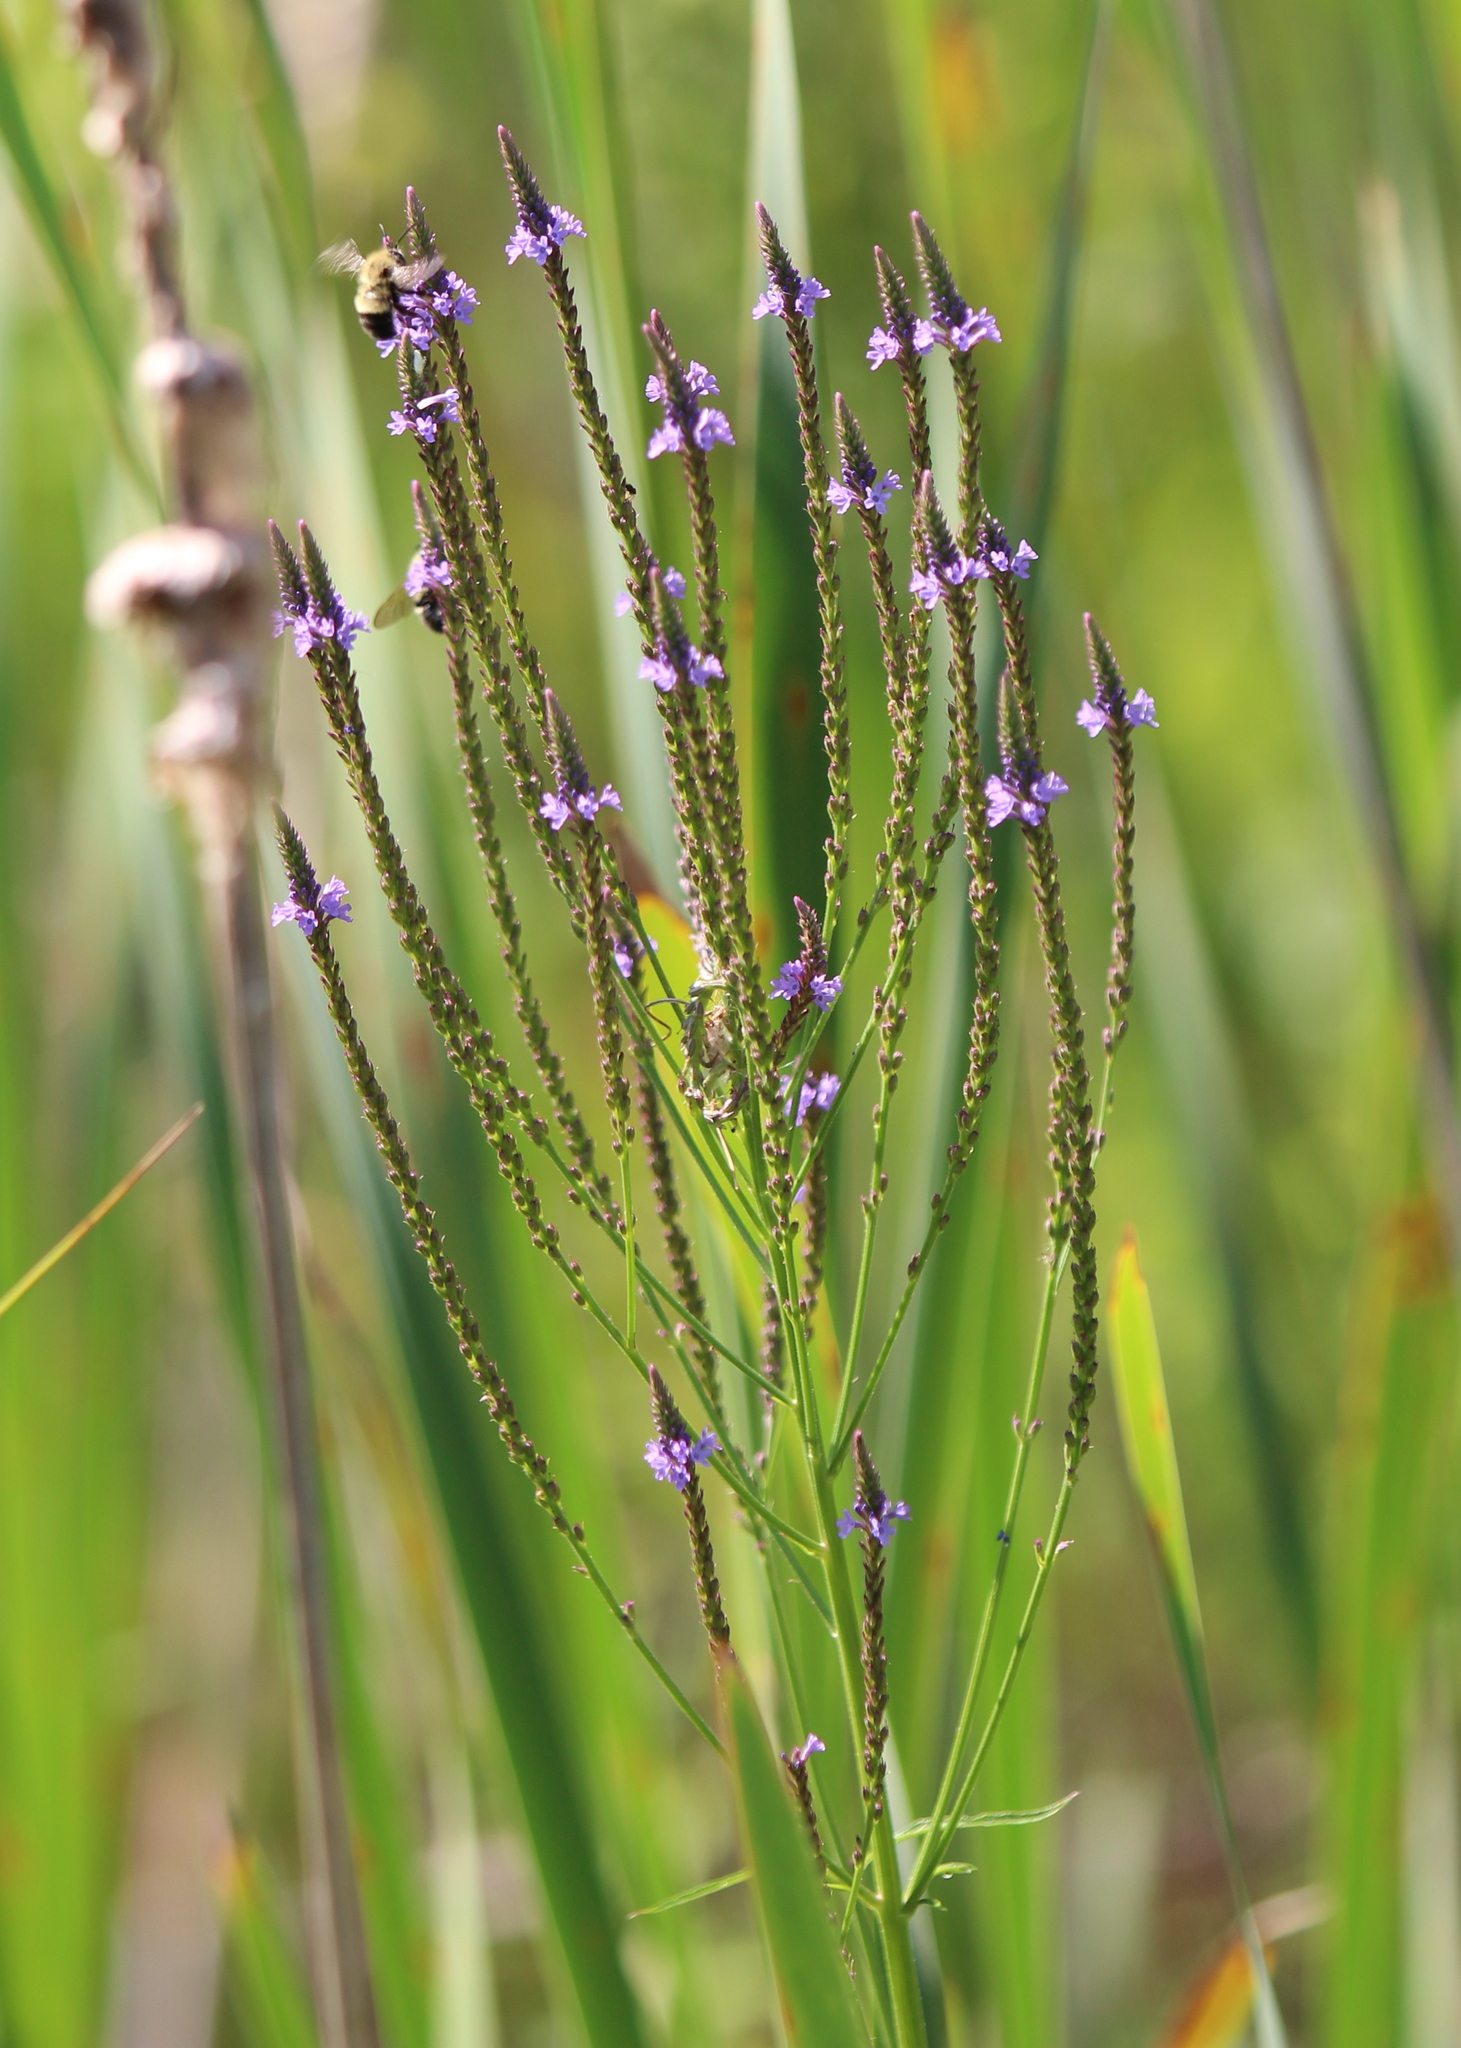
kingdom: Plantae
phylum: Tracheophyta
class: Magnoliopsida
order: Lamiales
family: Verbenaceae
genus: Verbena
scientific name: Verbena hastata
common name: American blue vervain
